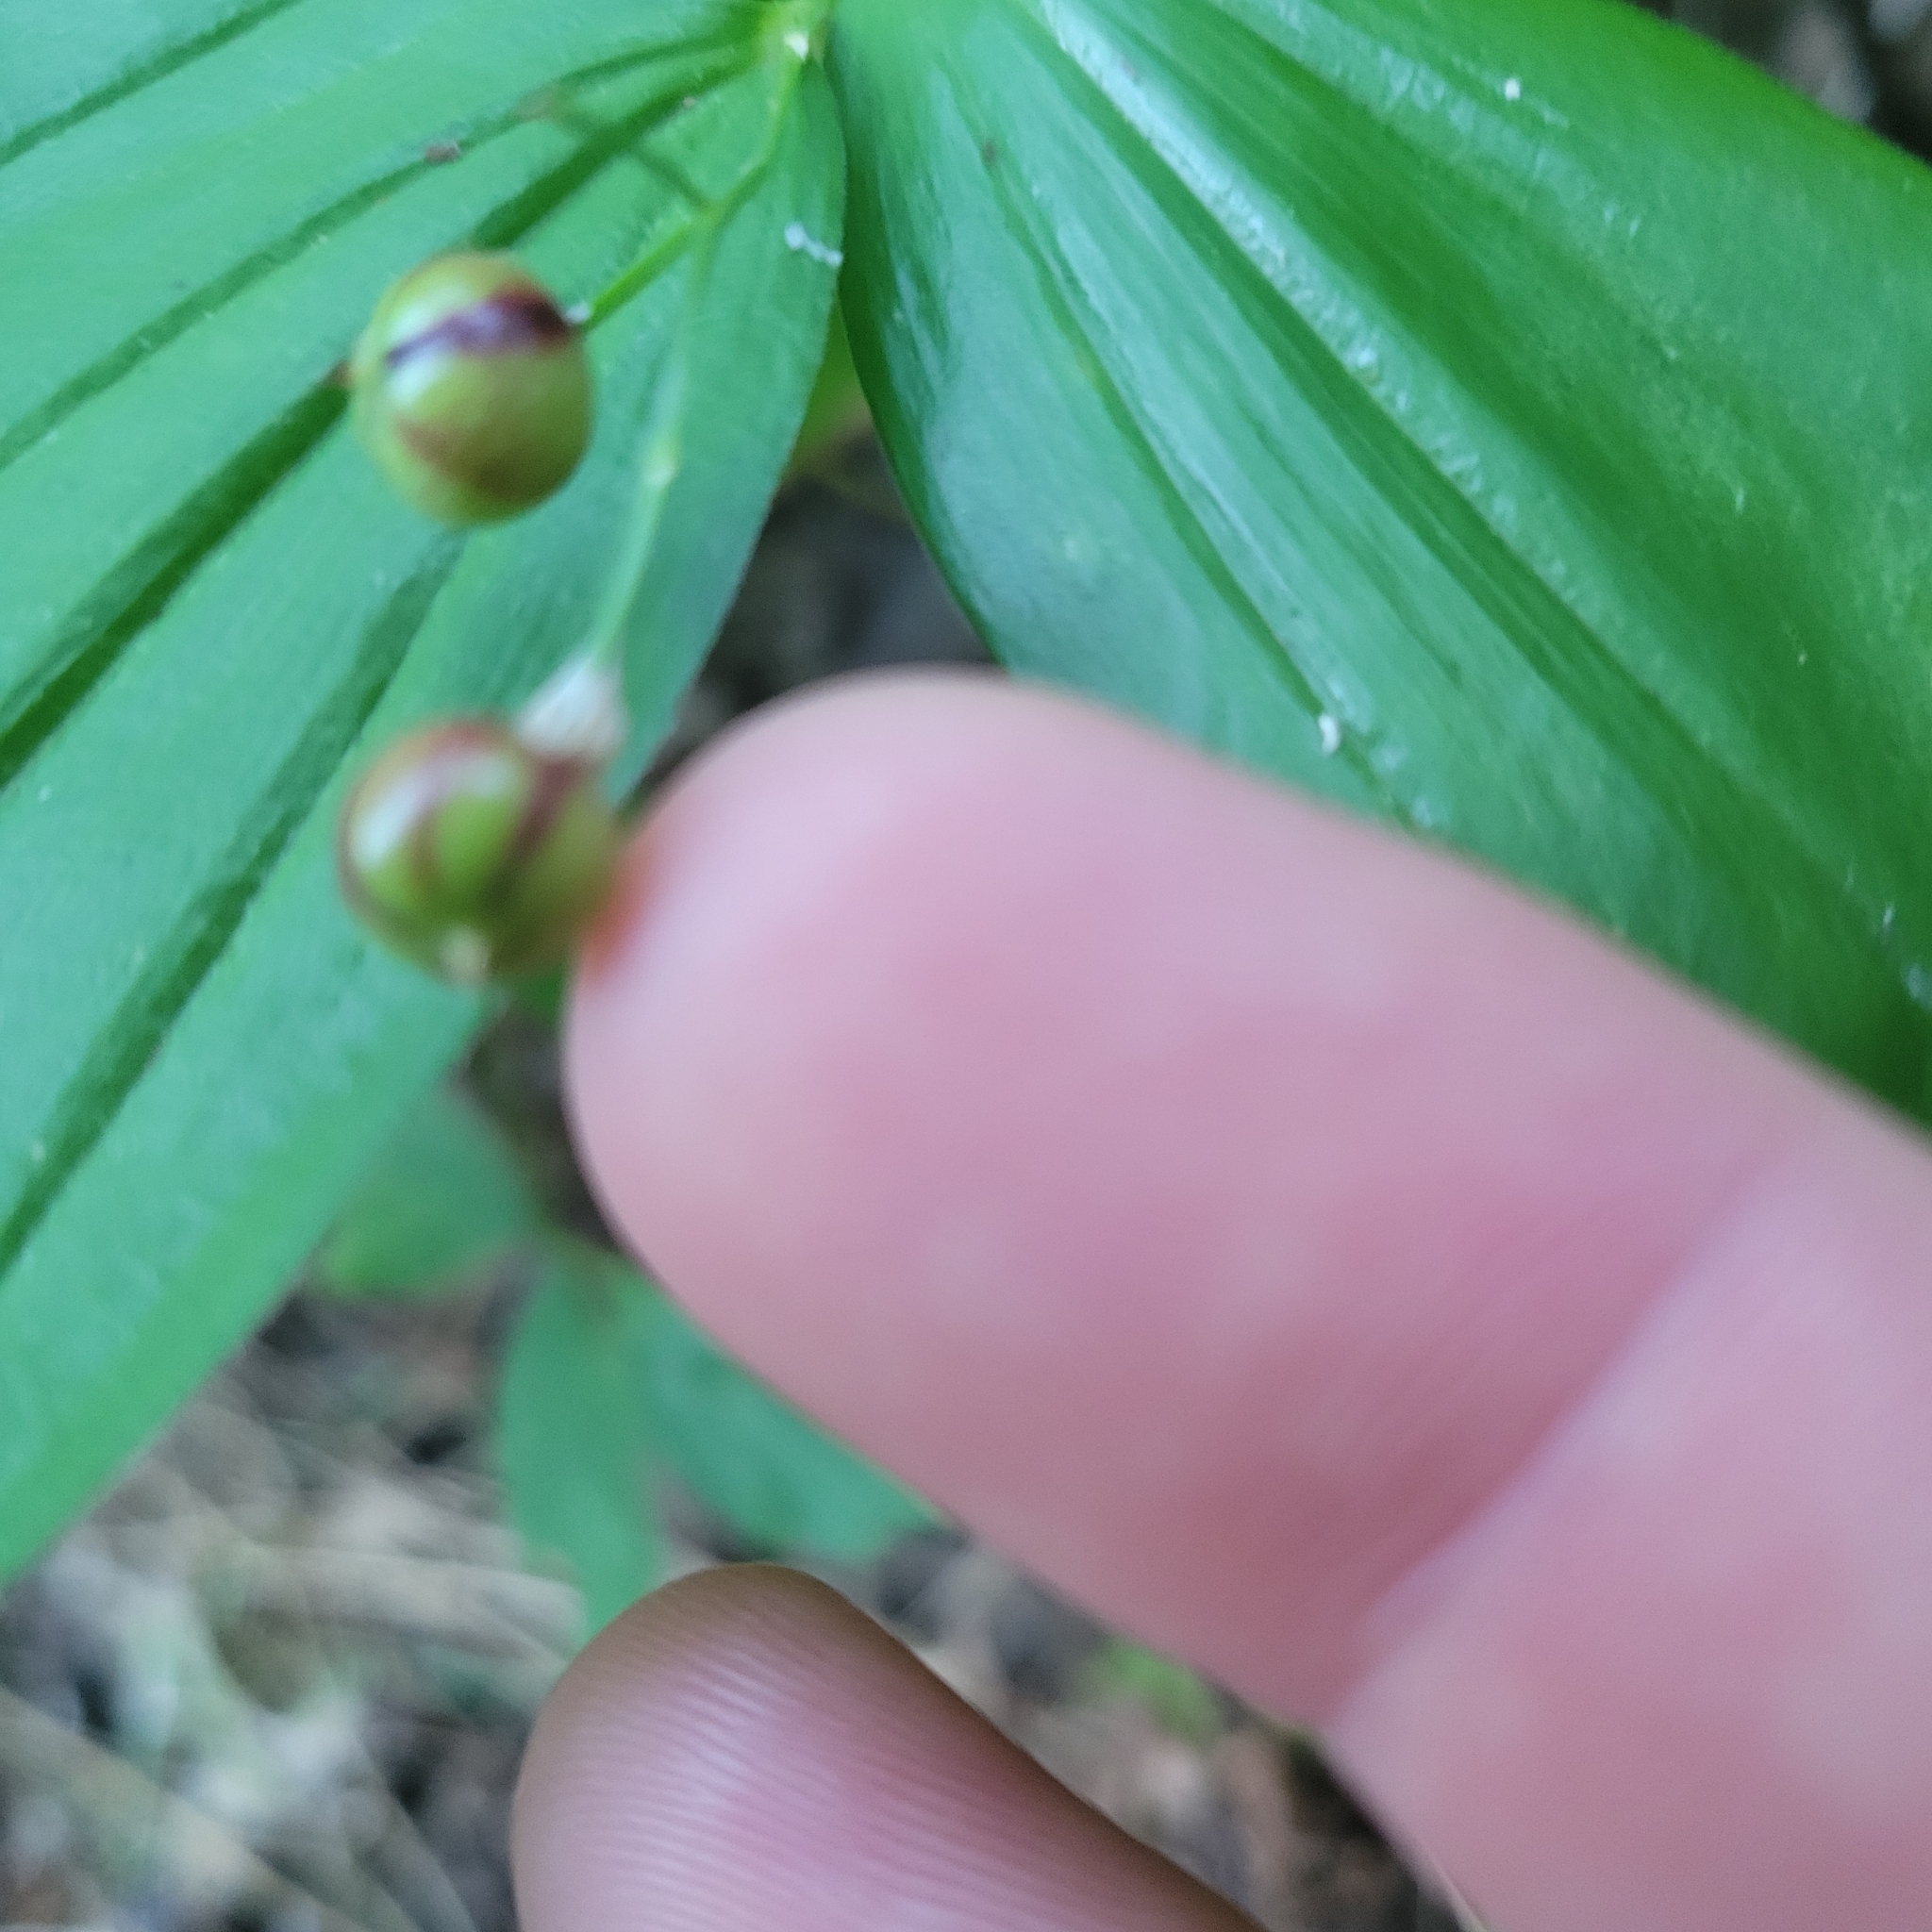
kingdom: Plantae
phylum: Tracheophyta
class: Liliopsida
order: Asparagales
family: Asparagaceae
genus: Maianthemum
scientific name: Maianthemum stellatum
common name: Little false solomon's seal
